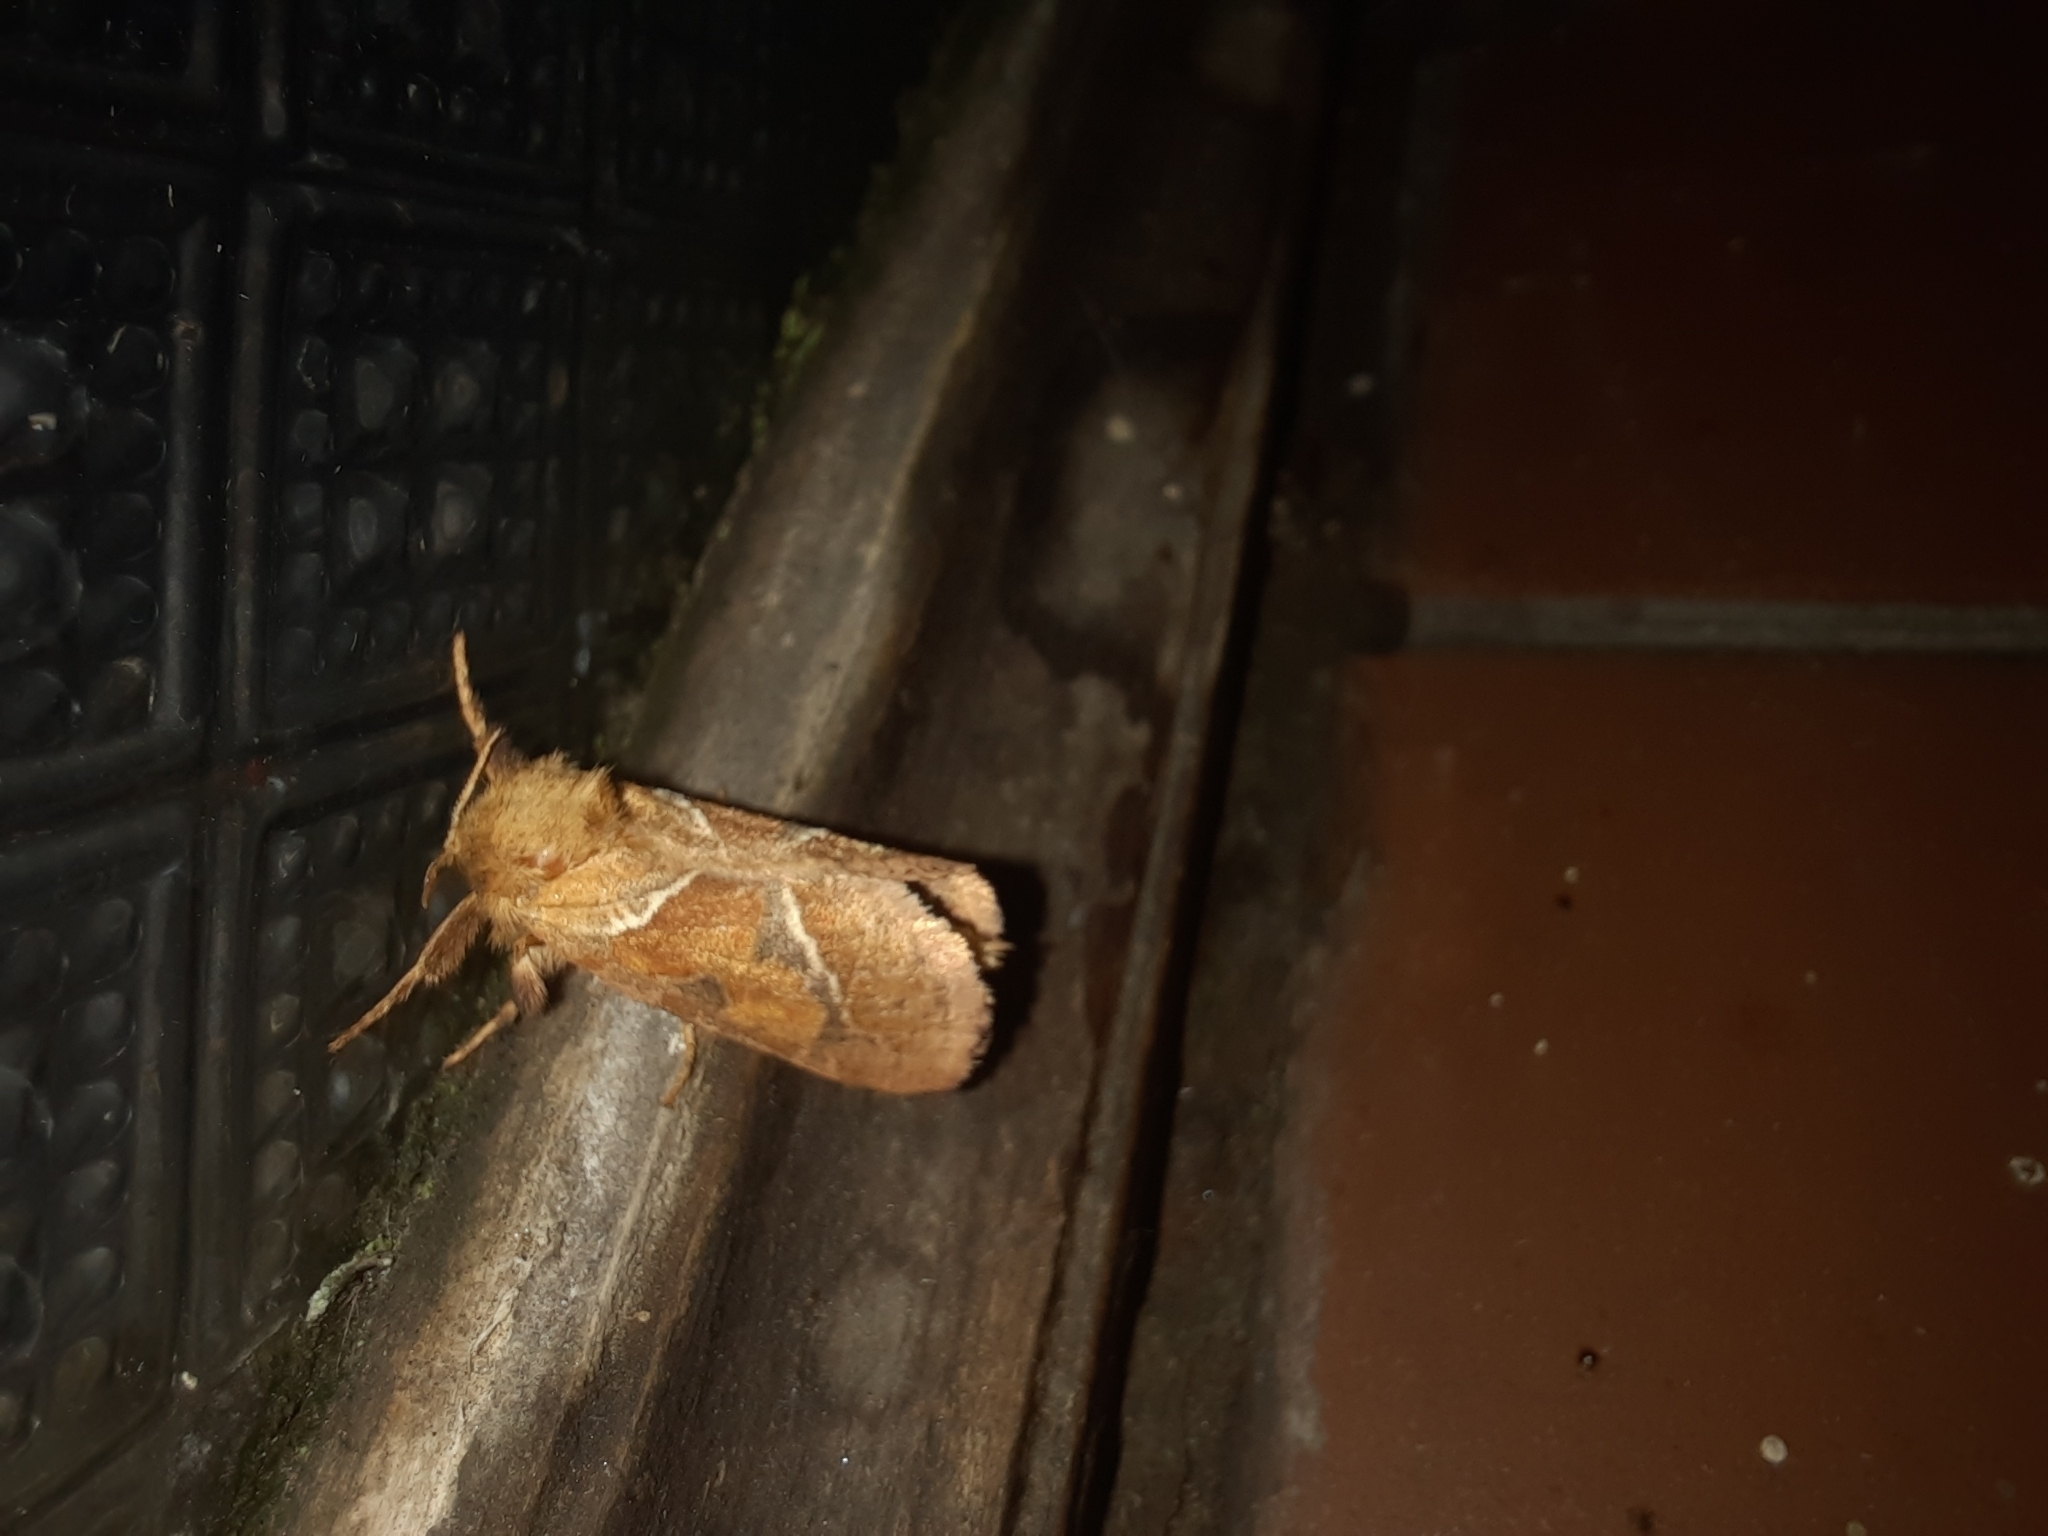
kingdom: Animalia
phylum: Arthropoda
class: Insecta
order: Lepidoptera
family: Hepialidae
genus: Triodia
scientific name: Triodia sylvina
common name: Orange swift
